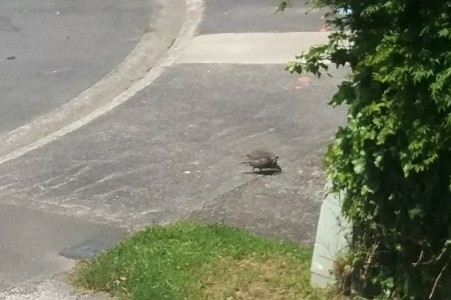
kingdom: Animalia
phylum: Chordata
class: Aves
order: Galliformes
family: Odontophoridae
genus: Callipepla
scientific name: Callipepla californica
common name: California quail
